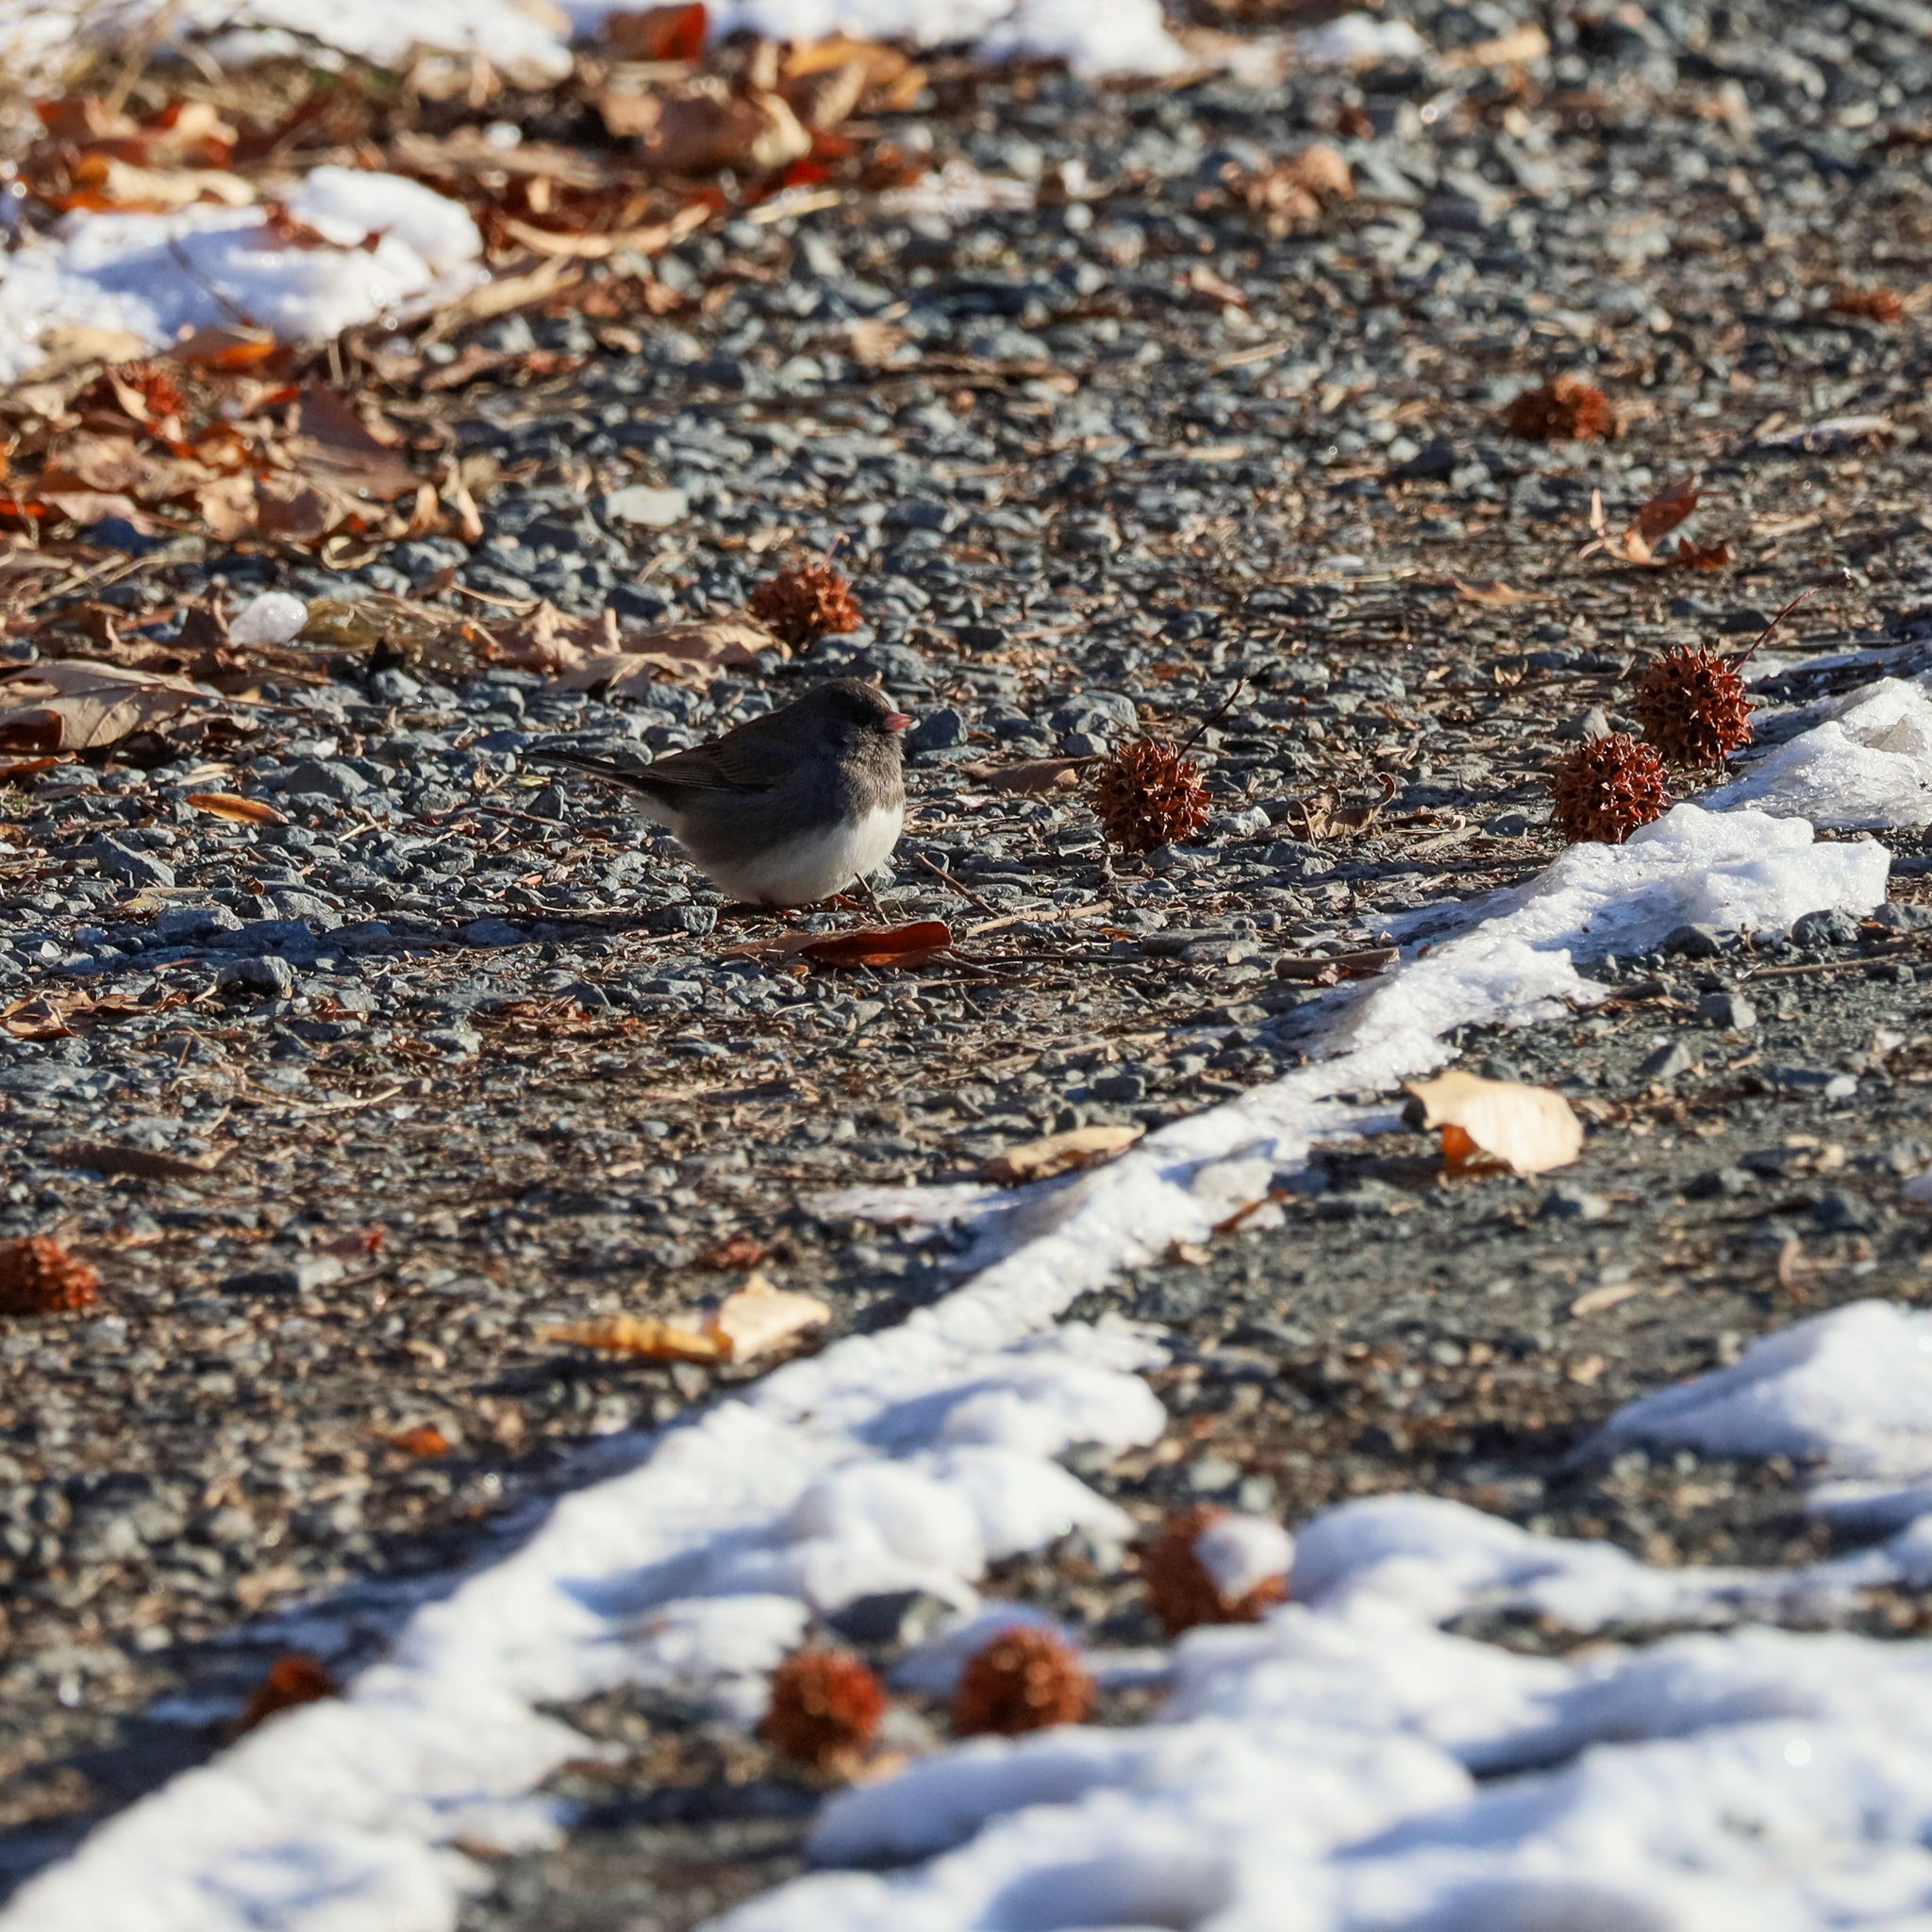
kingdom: Animalia
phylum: Chordata
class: Aves
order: Passeriformes
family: Passerellidae
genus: Junco
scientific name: Junco hyemalis
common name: Dark-eyed junco
